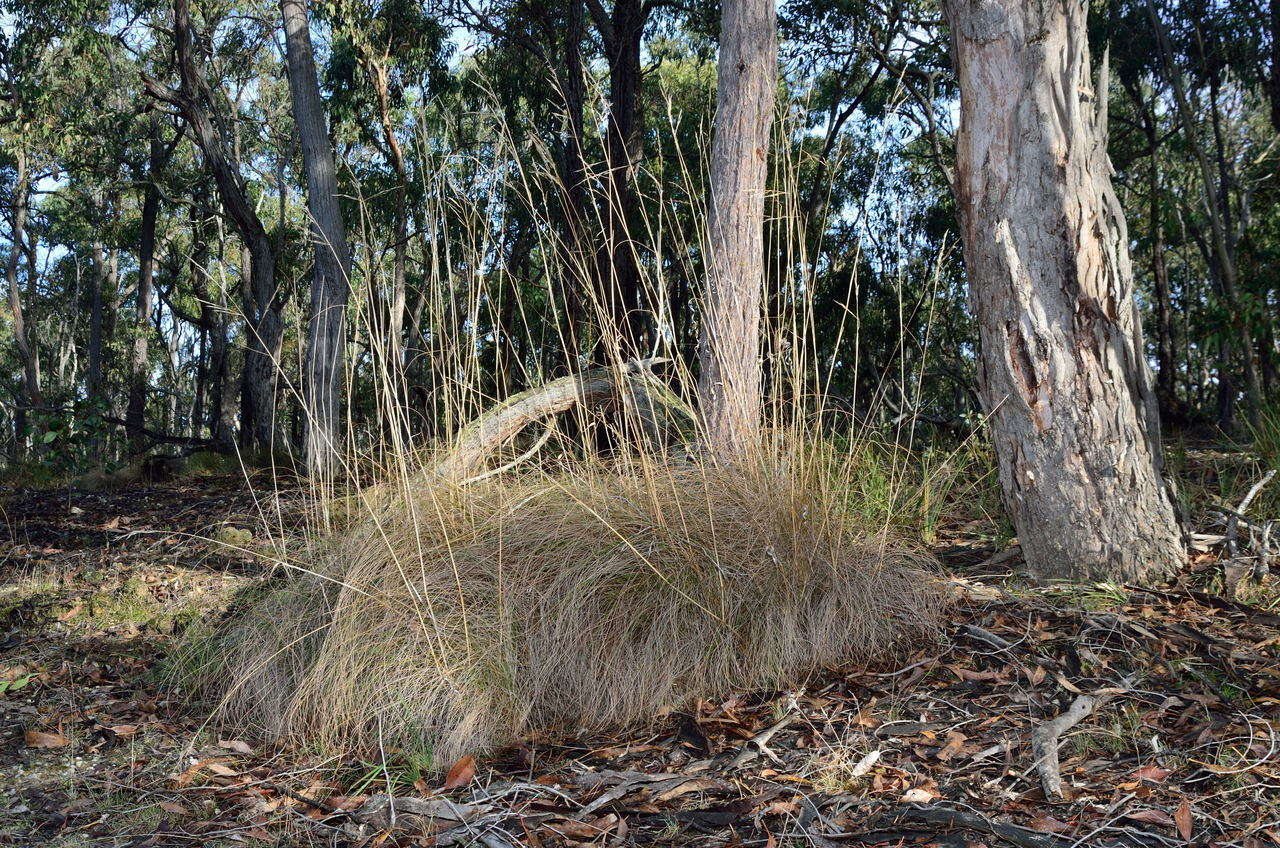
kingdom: Plantae
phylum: Tracheophyta
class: Liliopsida
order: Poales
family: Poaceae
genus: Rytidosperma
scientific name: Rytidosperma pallidum
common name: Red-anther wallaby grass
